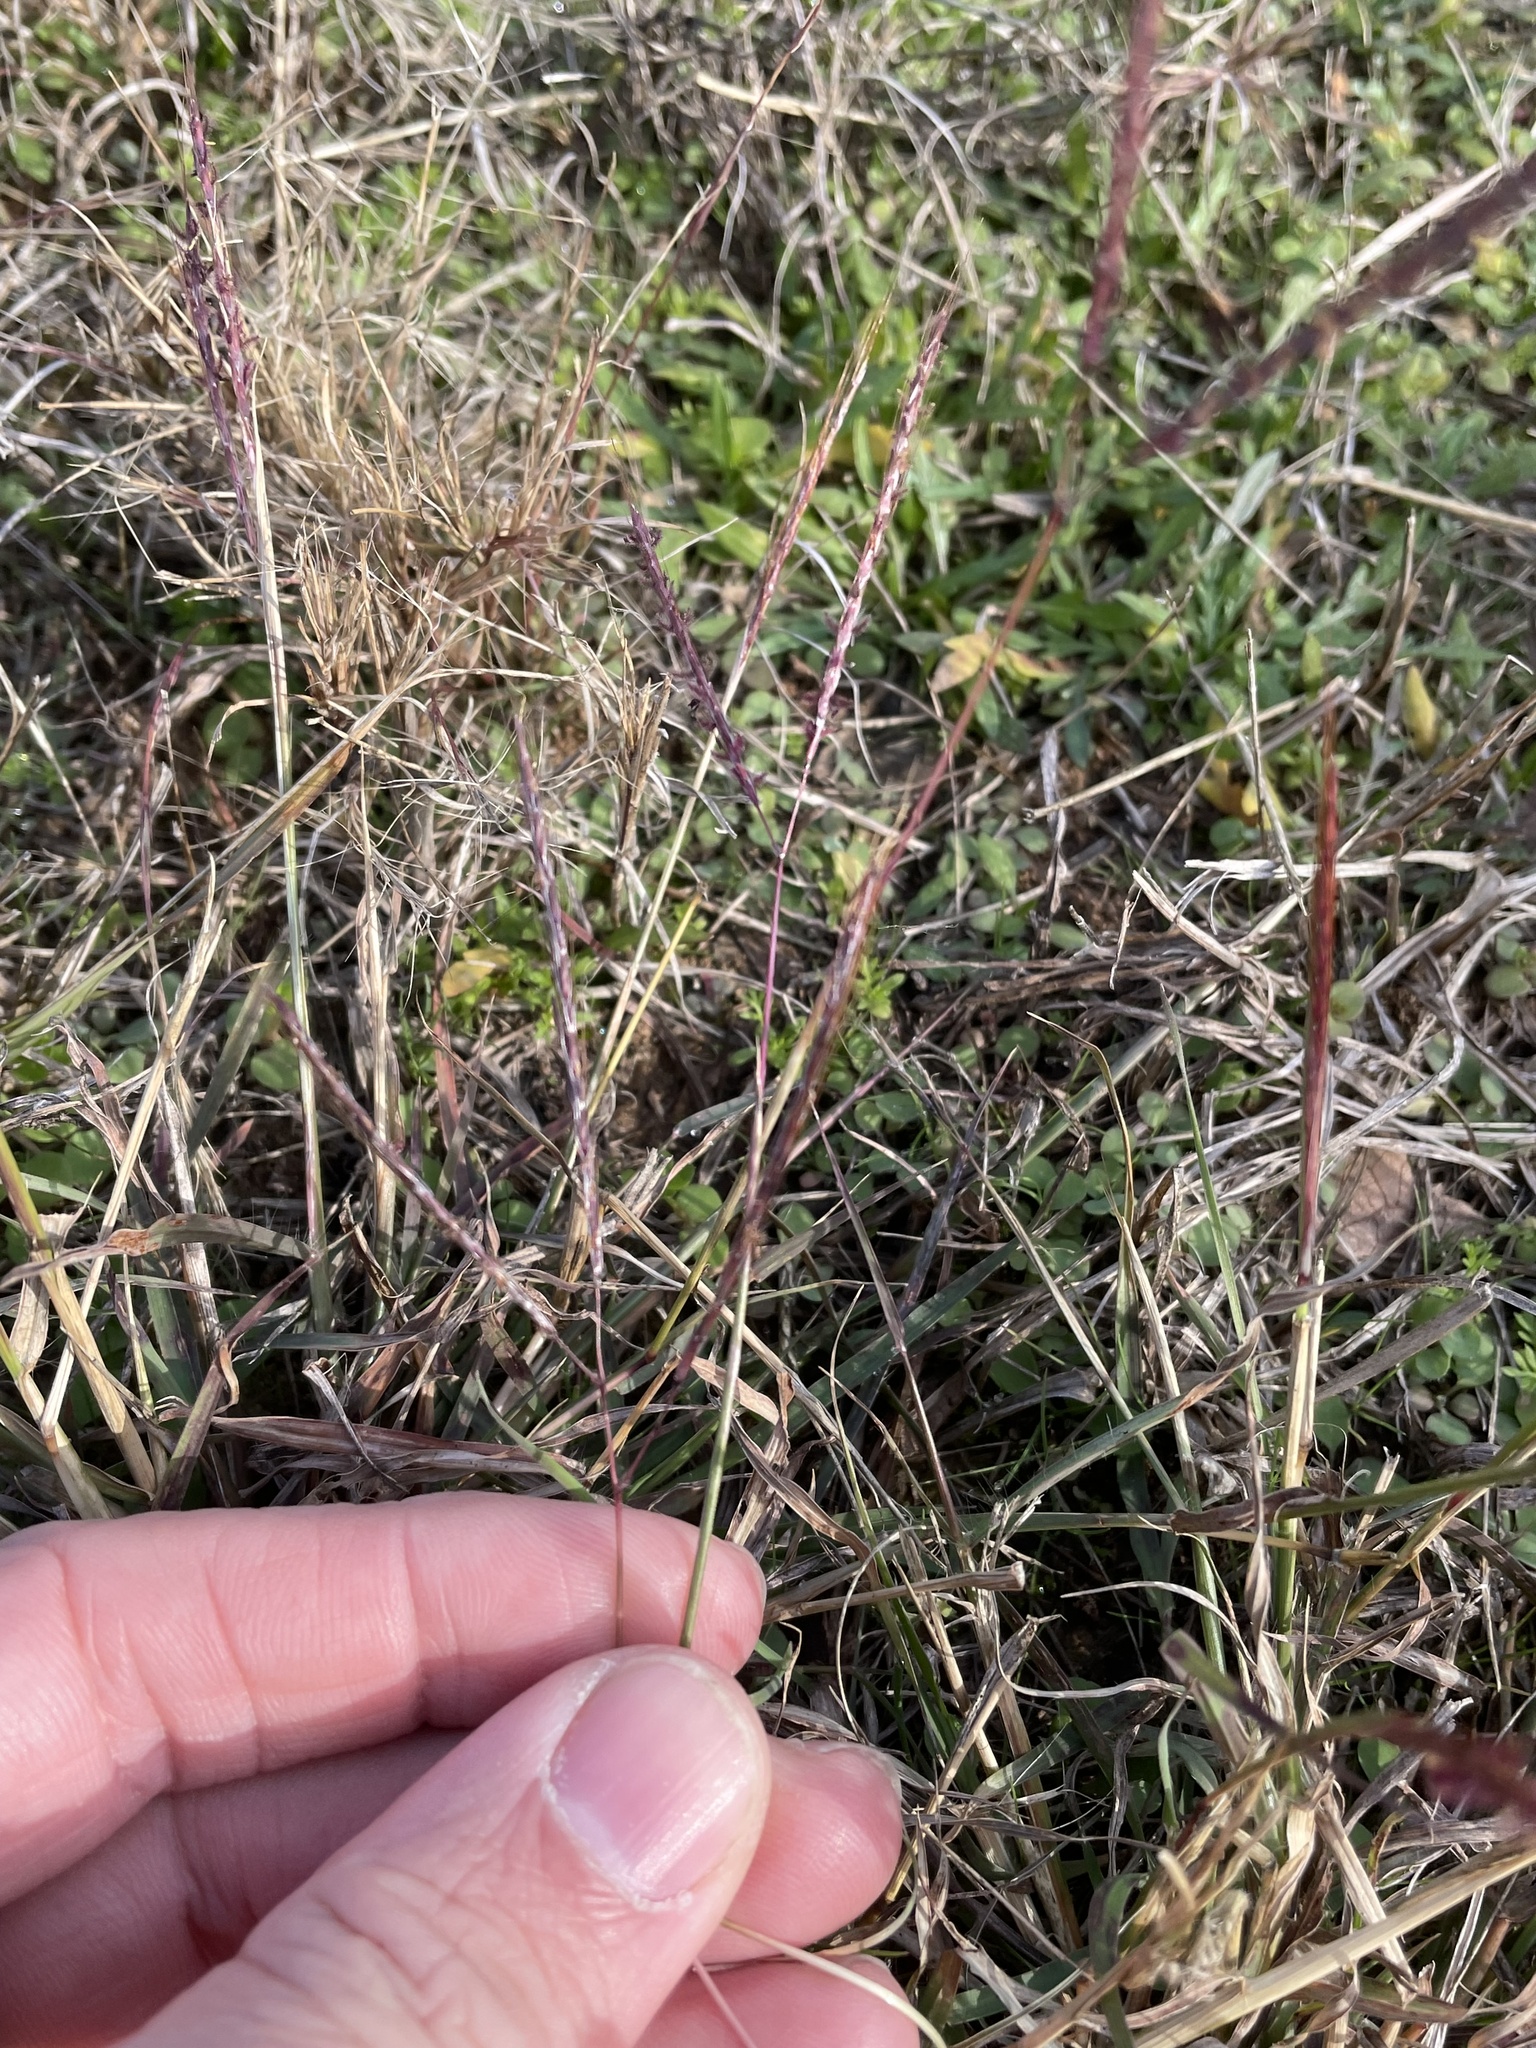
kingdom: Plantae
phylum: Tracheophyta
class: Liliopsida
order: Poales
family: Poaceae
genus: Bothriochloa
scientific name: Bothriochloa ischaemum
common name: Yellow bluestem
